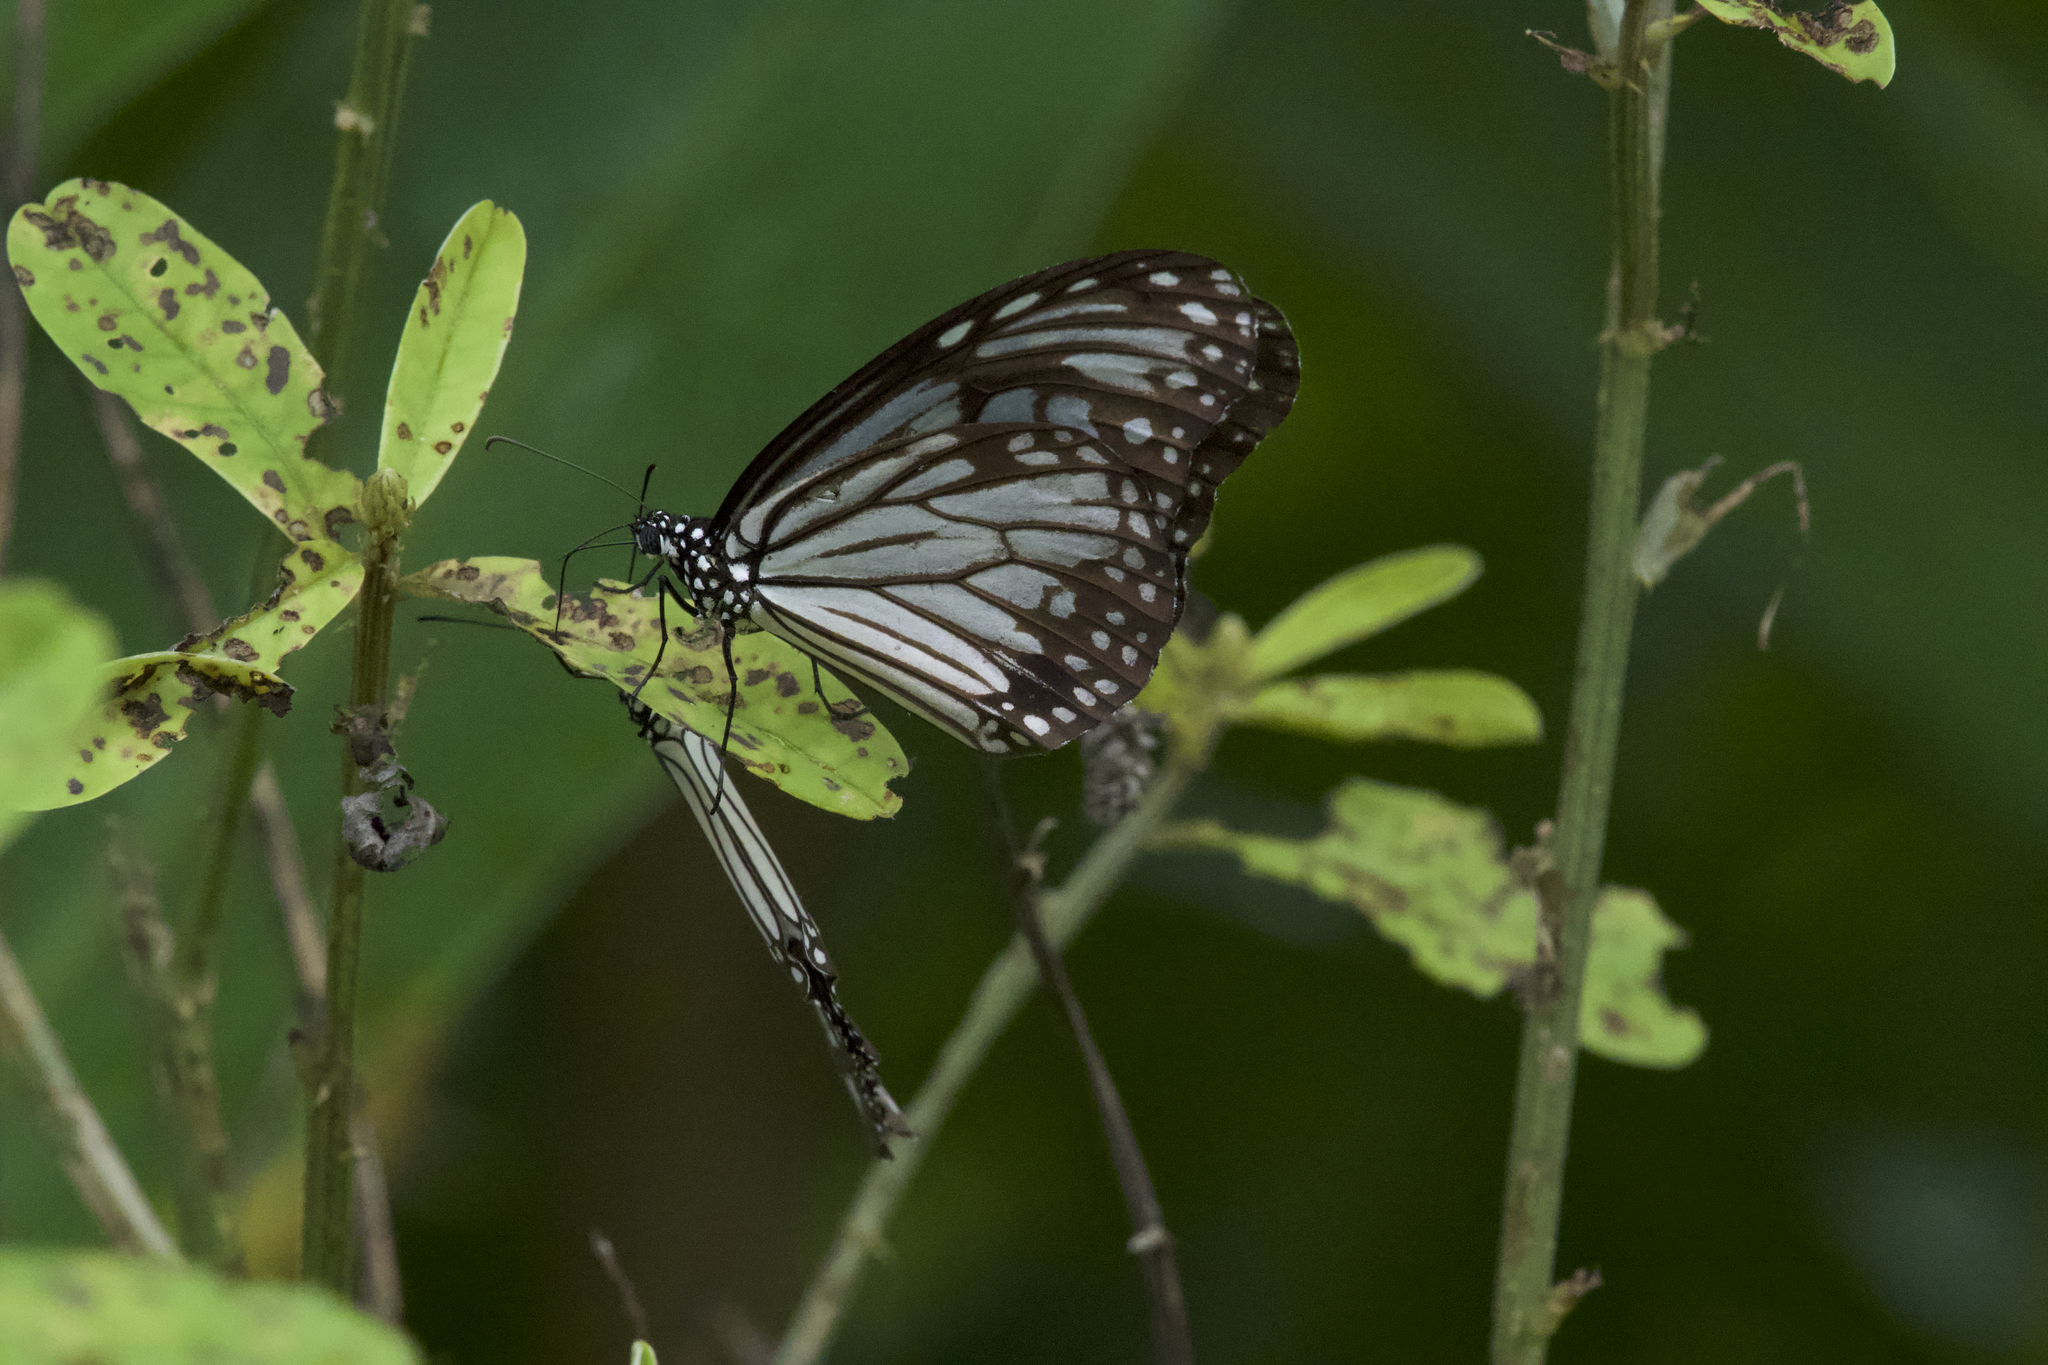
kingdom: Animalia
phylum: Arthropoda
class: Insecta
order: Lepidoptera
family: Nymphalidae
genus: Parantica
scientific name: Parantica aglea
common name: Glassy tiger
